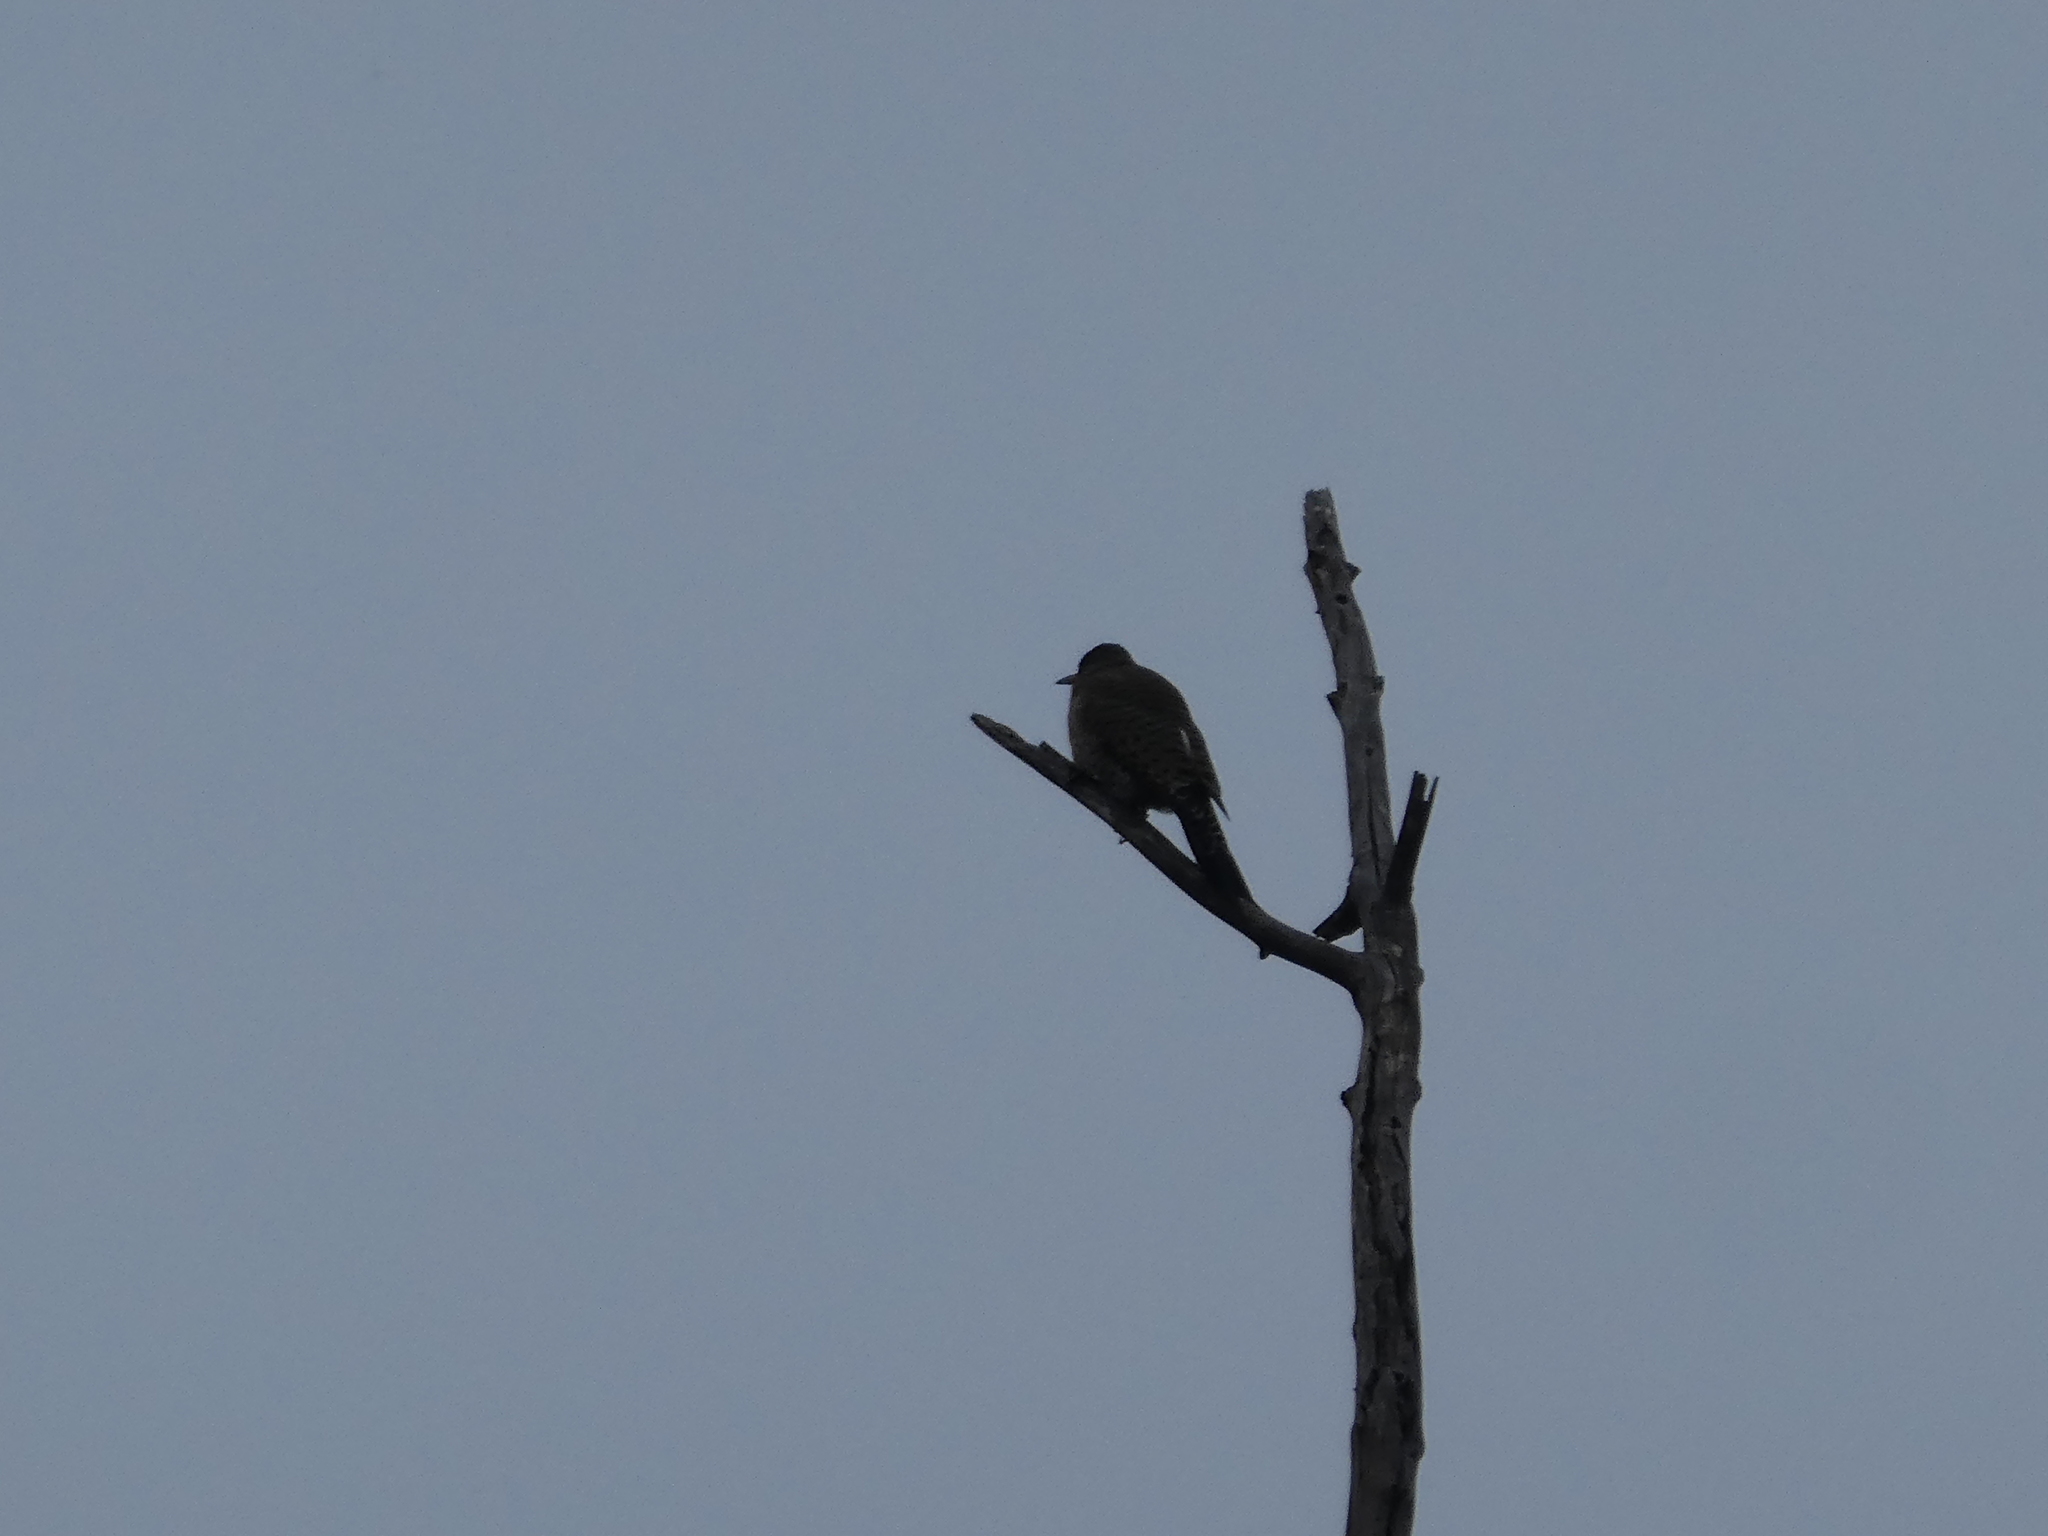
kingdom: Animalia
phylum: Chordata
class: Aves
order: Piciformes
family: Picidae
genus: Colaptes
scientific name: Colaptes auratus
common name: Northern flicker
